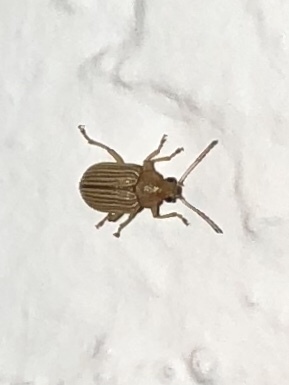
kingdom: Animalia
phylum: Arthropoda
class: Insecta
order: Coleoptera
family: Chrysomelidae
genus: Colaspis
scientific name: Colaspis hesperia
